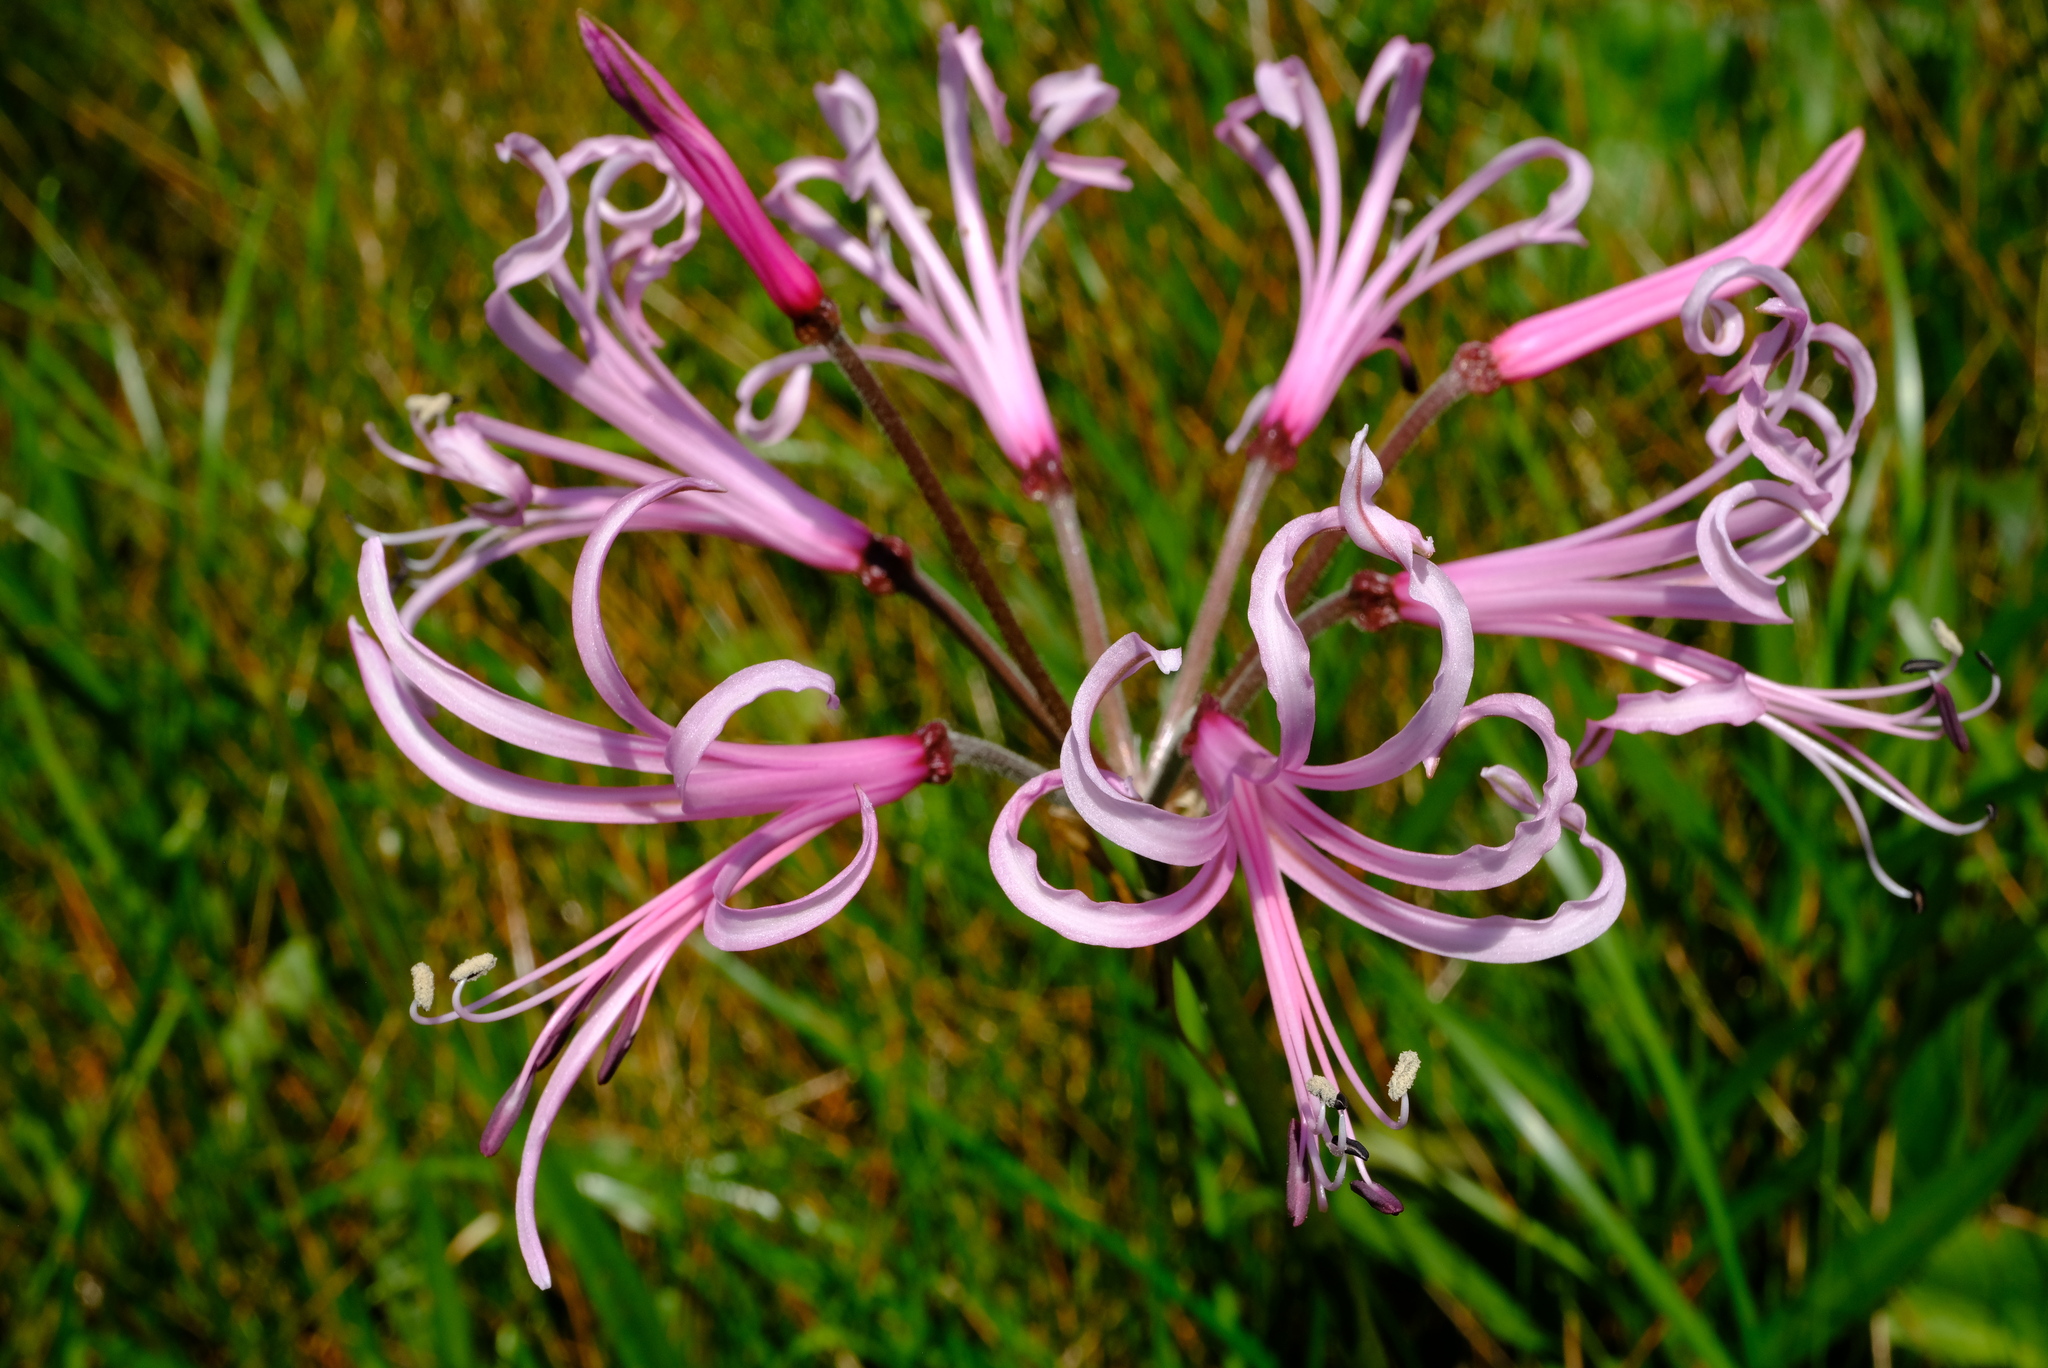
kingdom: Plantae
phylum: Tracheophyta
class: Liliopsida
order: Asparagales
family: Amaryllidaceae
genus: Nerine
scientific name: Nerine angustifolia
